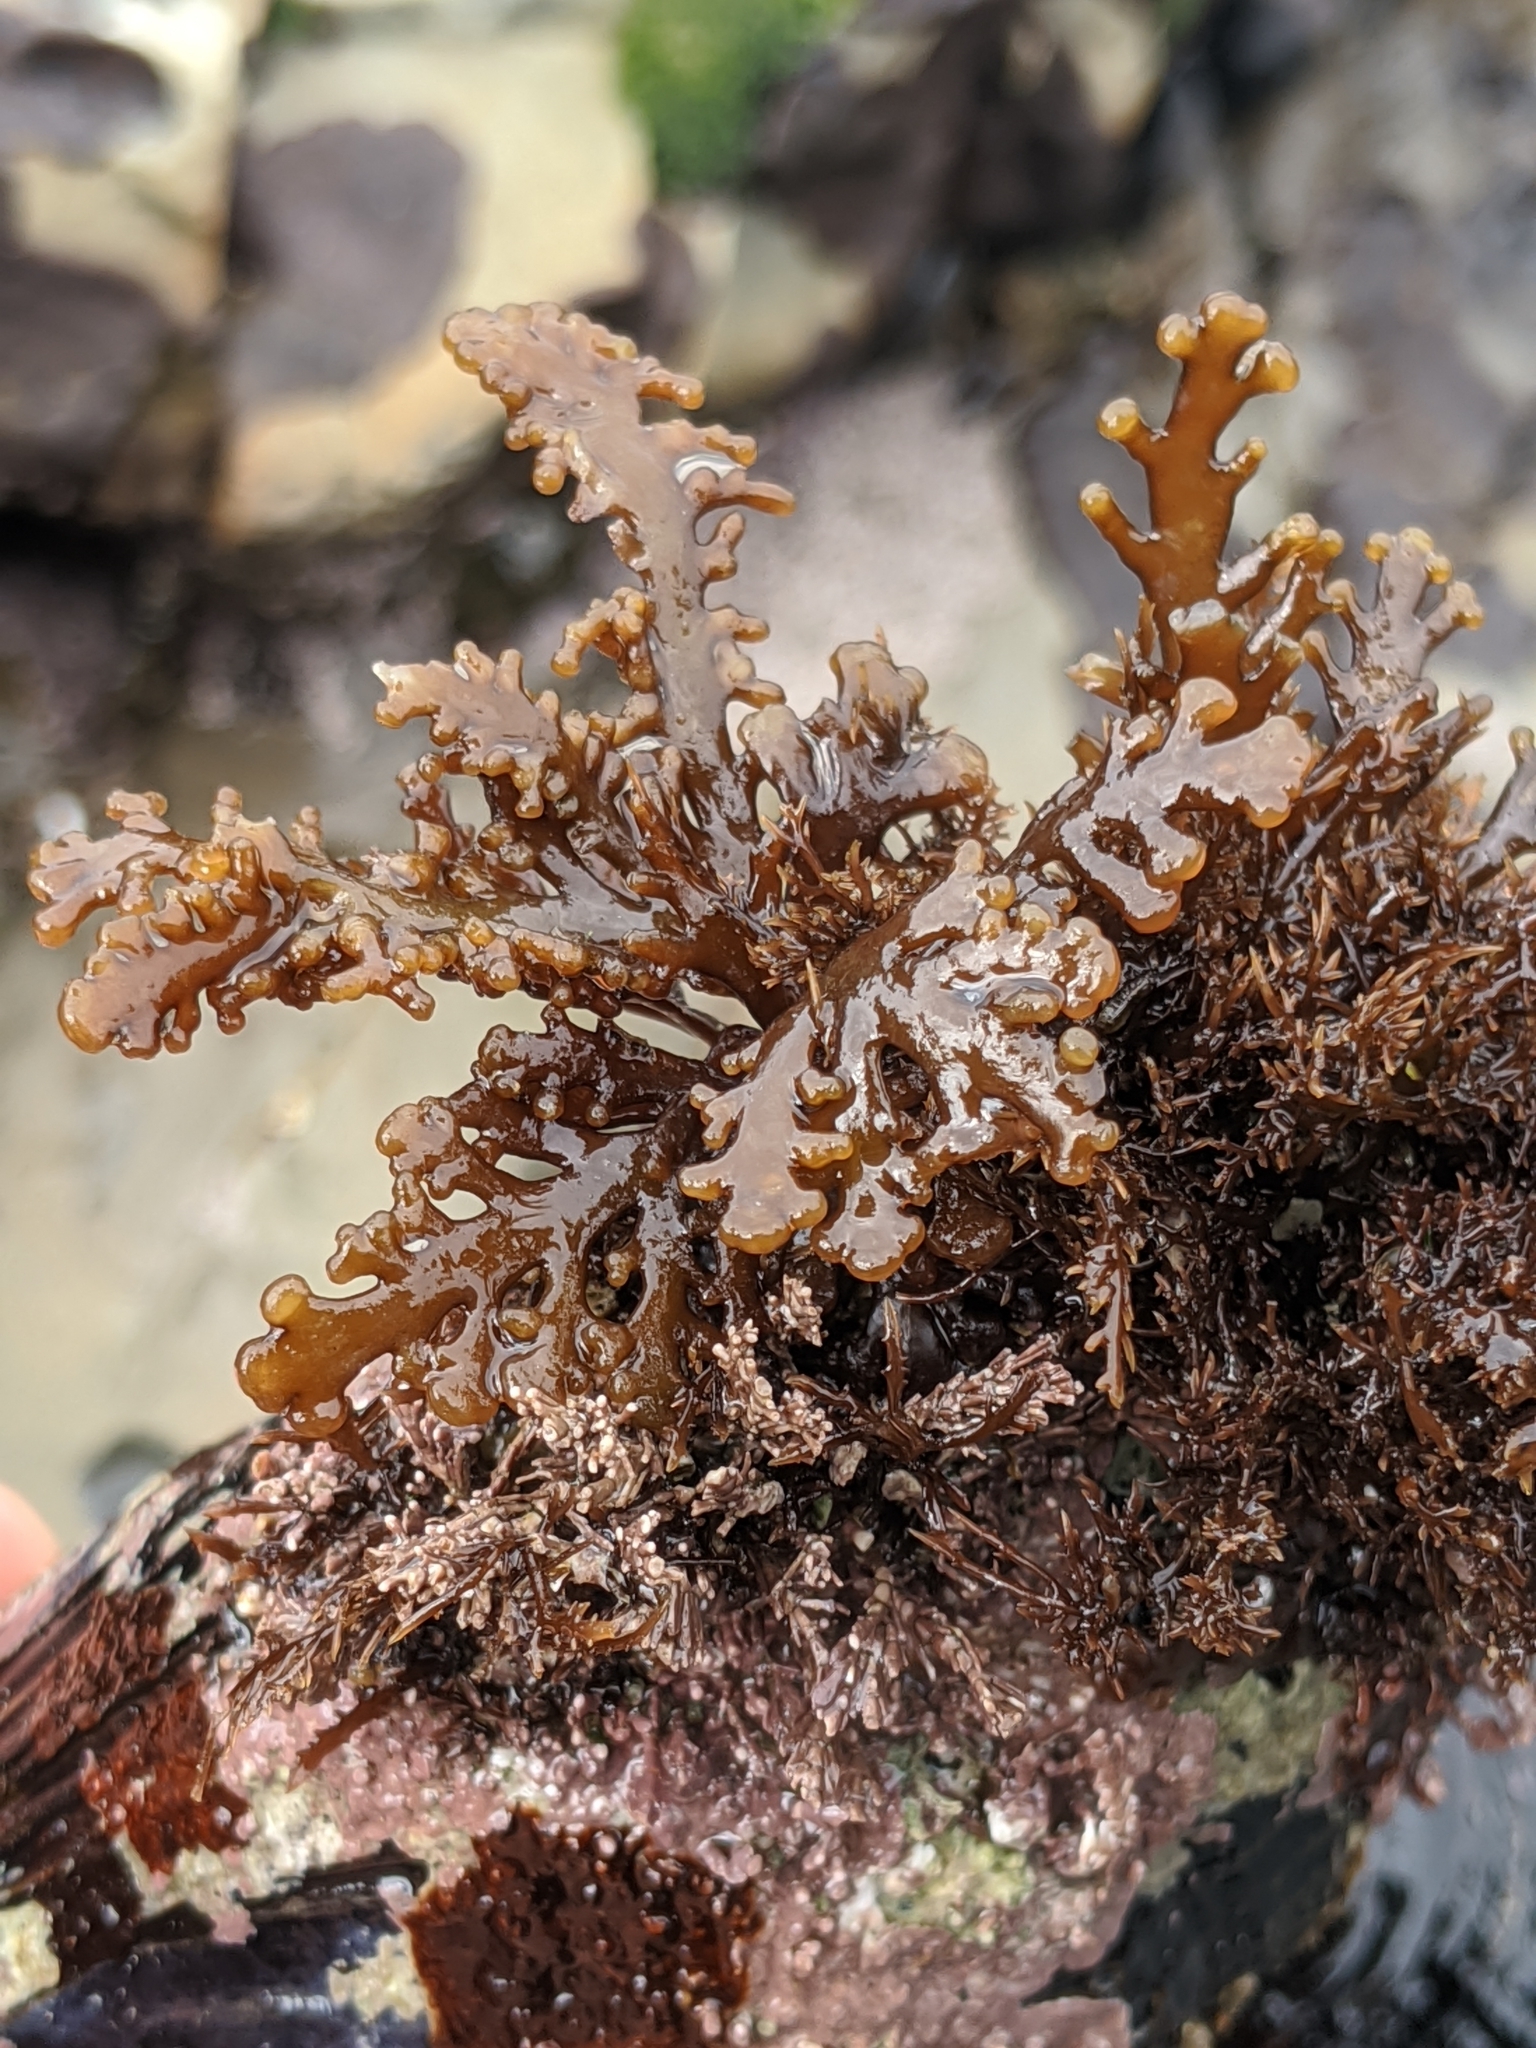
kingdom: Plantae
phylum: Rhodophyta
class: Florideophyceae
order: Ceramiales
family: Rhodomelaceae
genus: Osmundea
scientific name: Osmundea spectabilis
